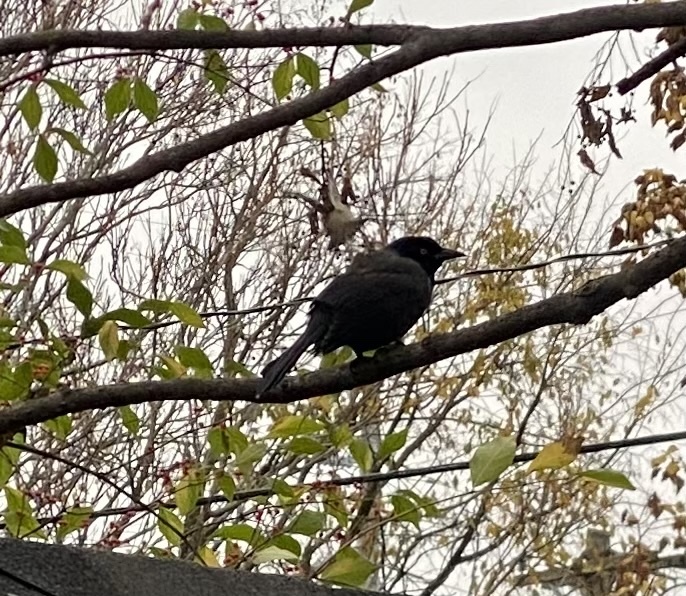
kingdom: Animalia
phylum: Chordata
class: Aves
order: Passeriformes
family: Icteridae
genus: Quiscalus
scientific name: Quiscalus quiscula
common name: Common grackle
